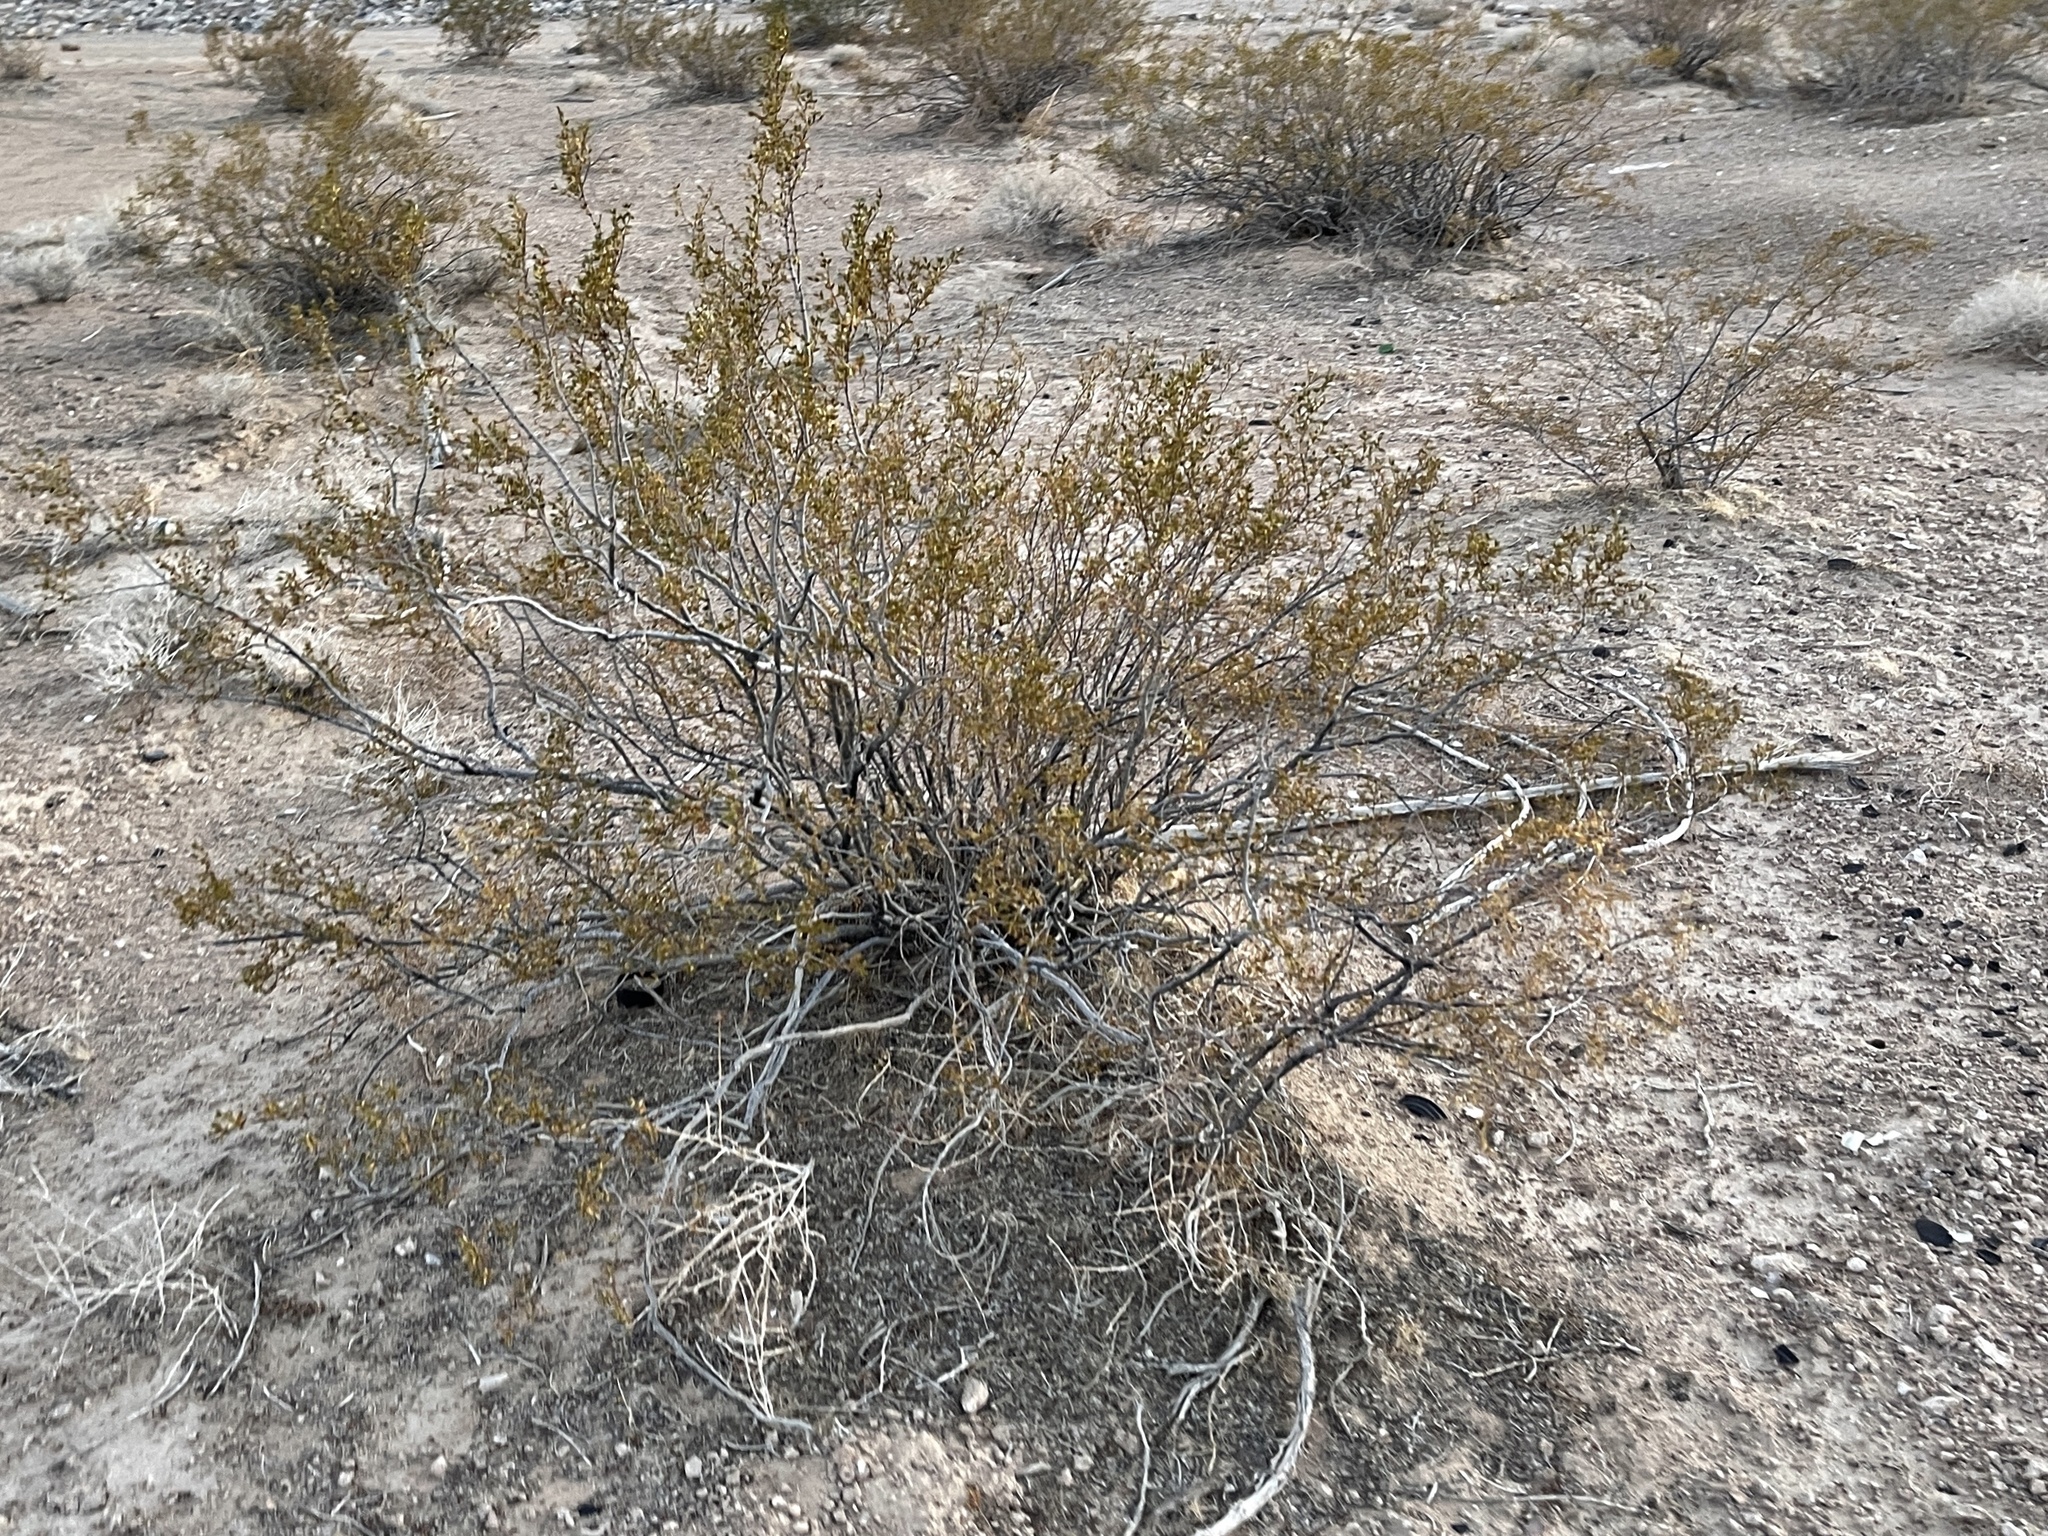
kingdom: Plantae
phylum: Tracheophyta
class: Magnoliopsida
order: Zygophyllales
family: Zygophyllaceae
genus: Larrea
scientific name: Larrea tridentata
